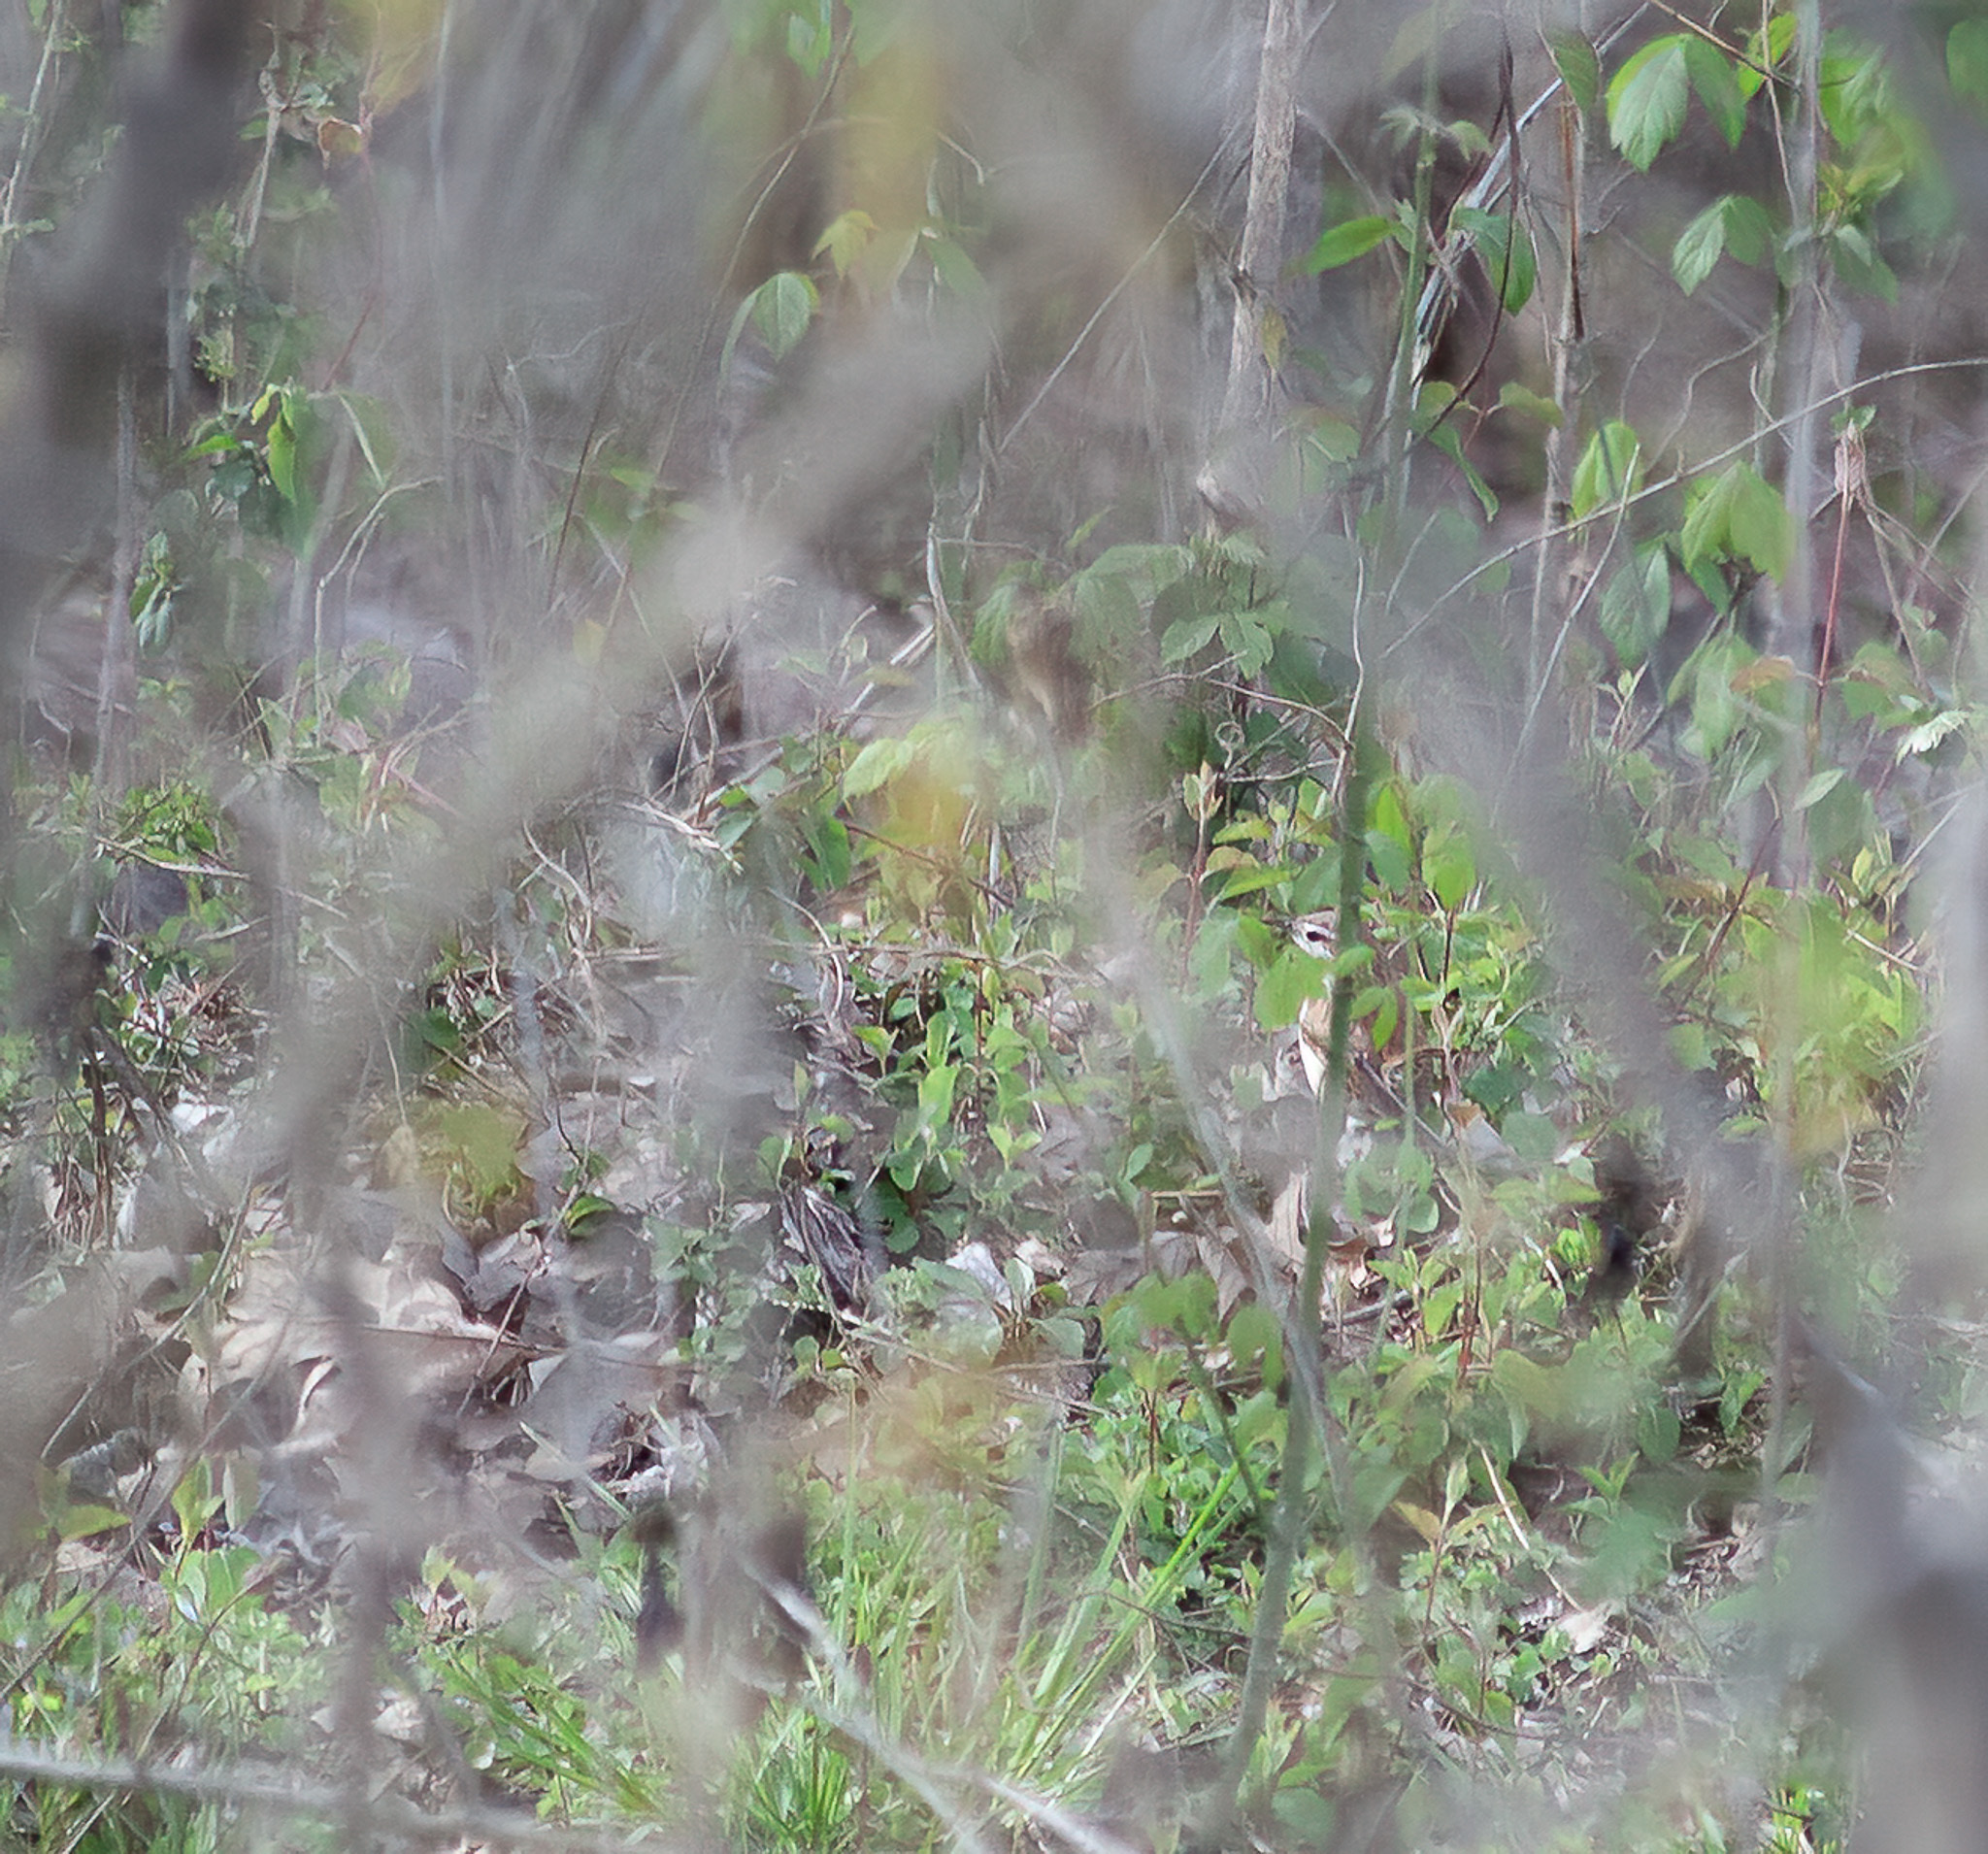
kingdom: Animalia
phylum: Chordata
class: Aves
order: Passeriformes
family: Troglodytidae
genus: Thryothorus
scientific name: Thryothorus ludovicianus
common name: Carolina wren
